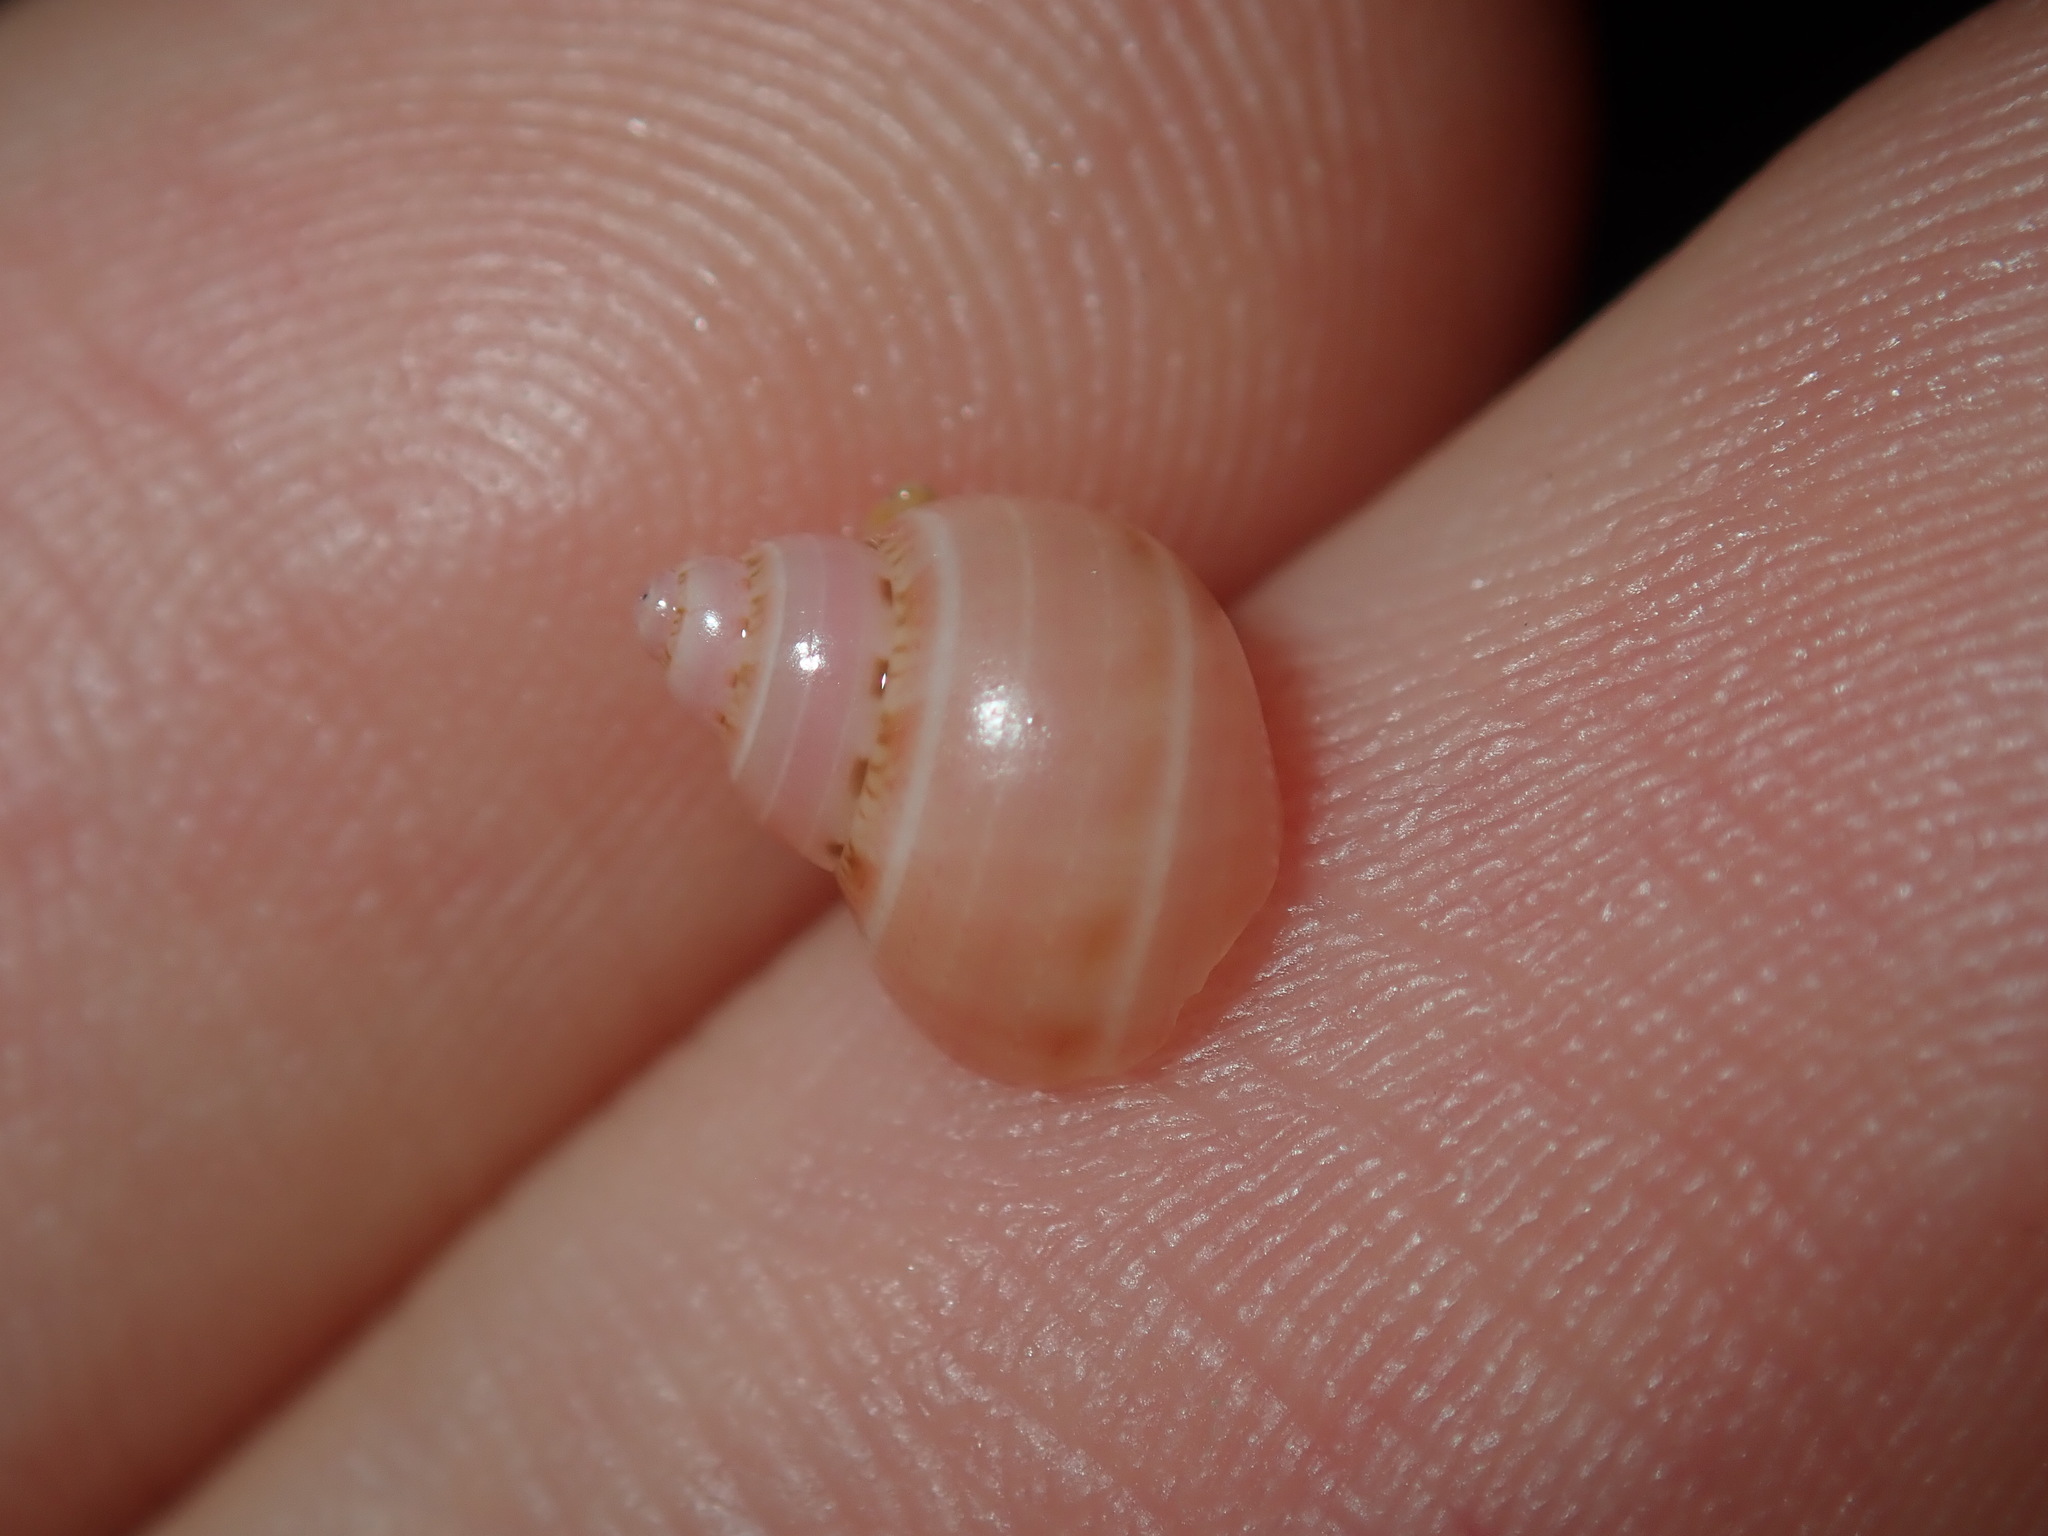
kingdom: Animalia
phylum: Mollusca
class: Gastropoda
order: Trochida
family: Phasianellidae
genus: Phasianella
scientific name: Phasianella ventricosa
